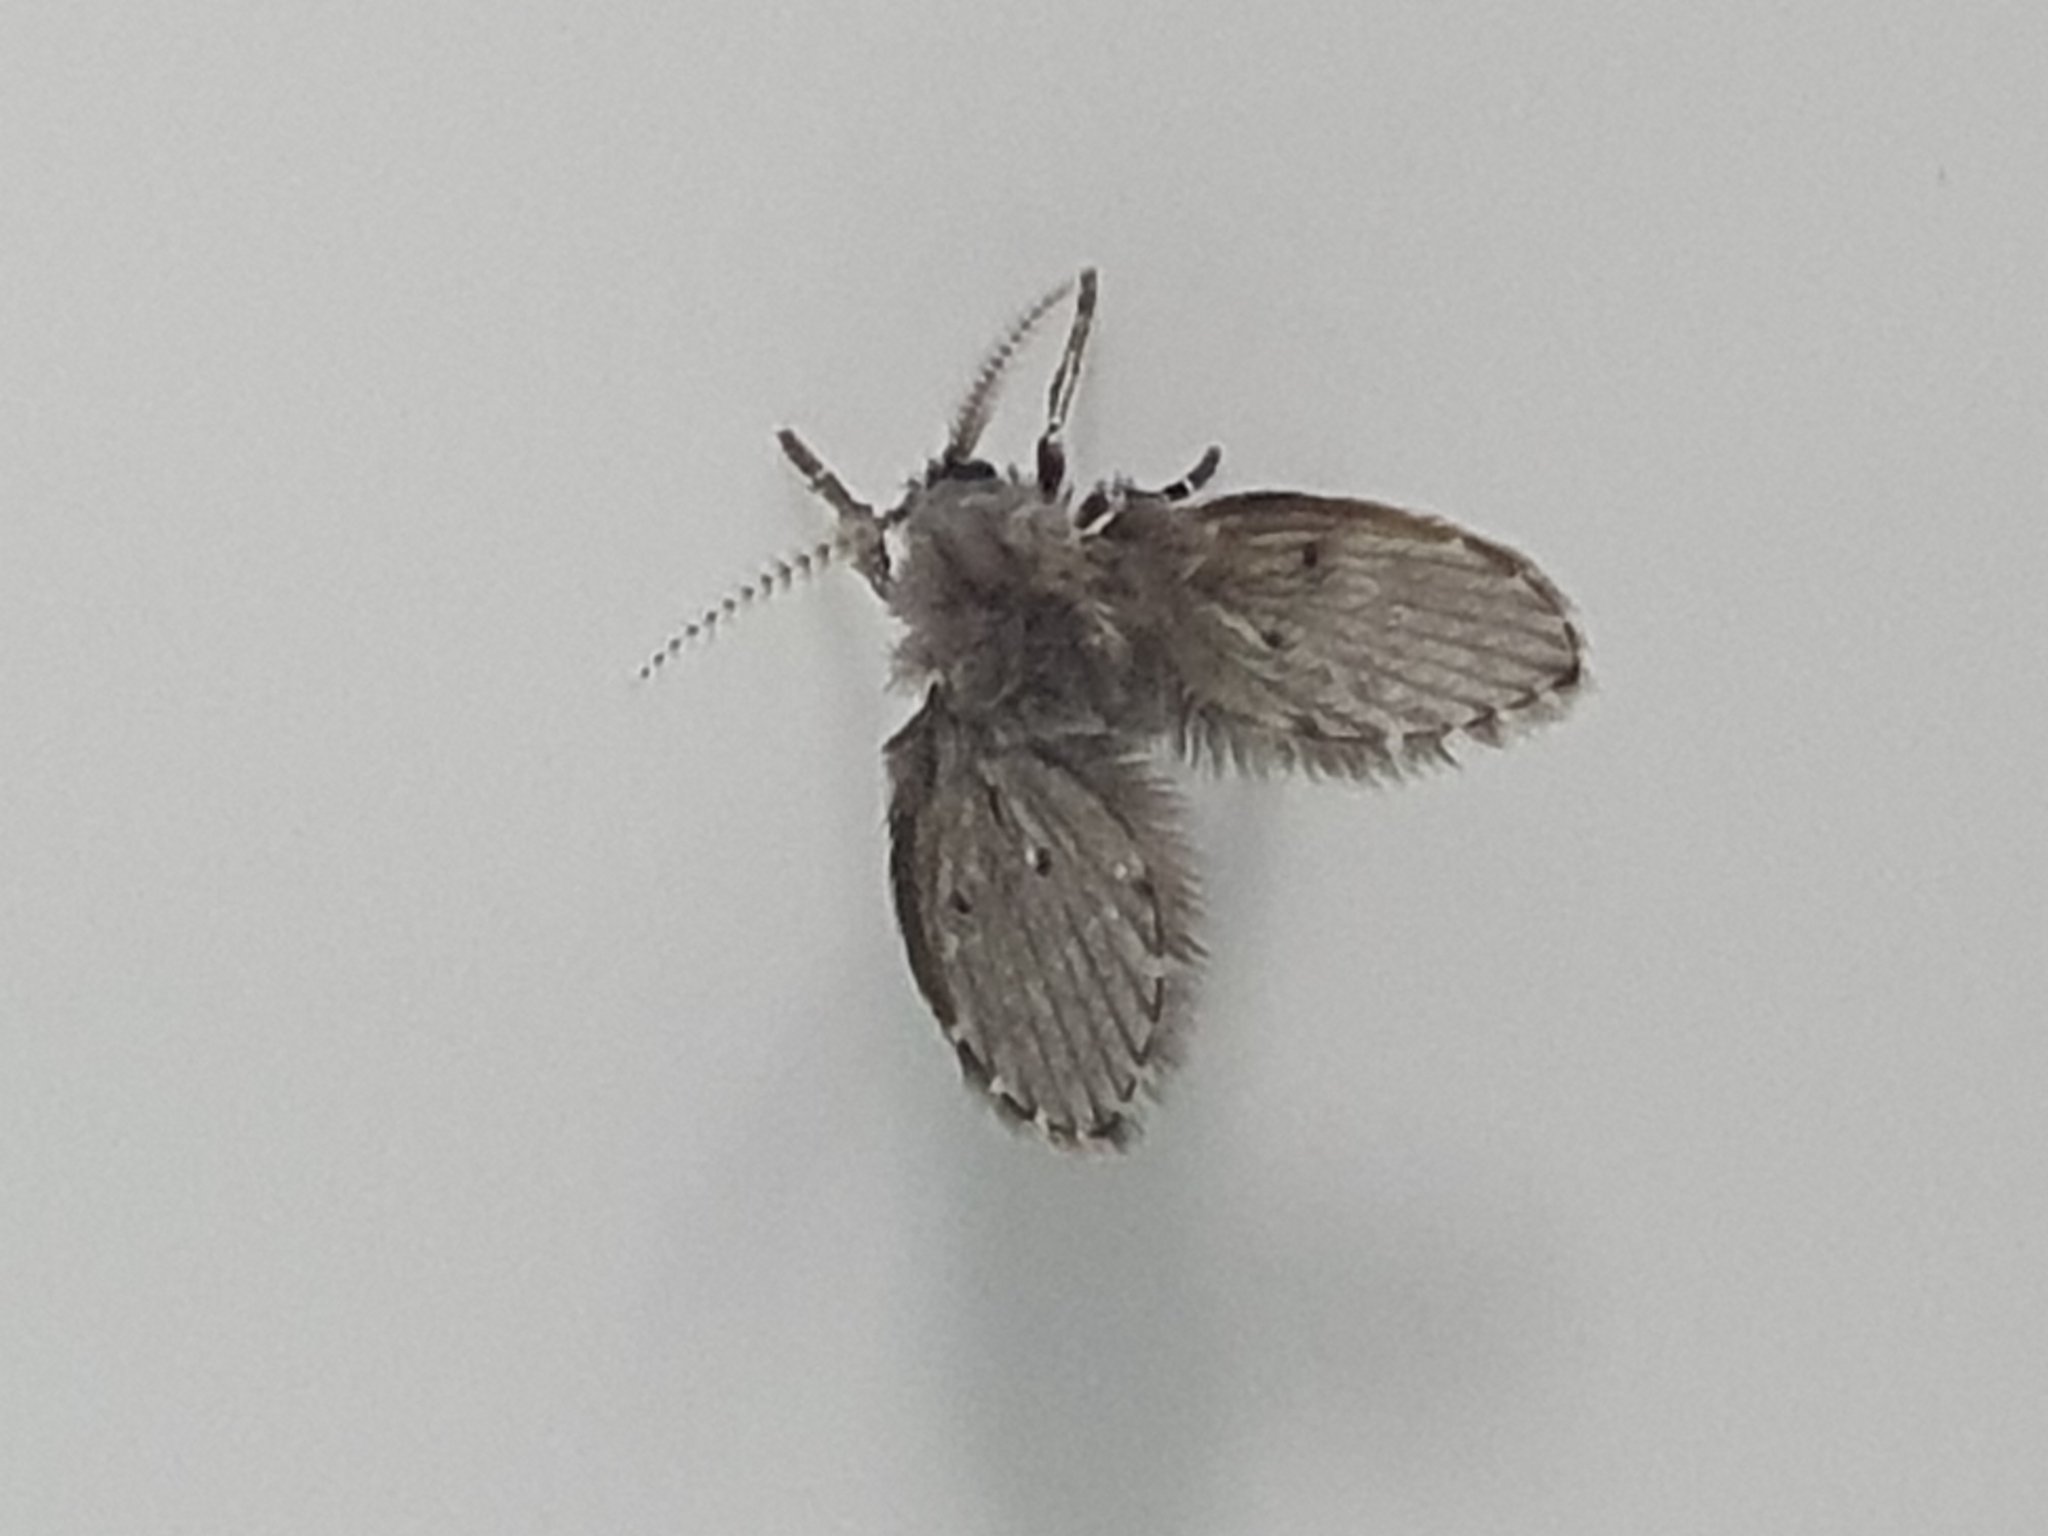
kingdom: Animalia
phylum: Arthropoda
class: Insecta
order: Diptera
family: Psychodidae
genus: Clogmia
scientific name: Clogmia albipunctatus
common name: White-spotted moth fly
